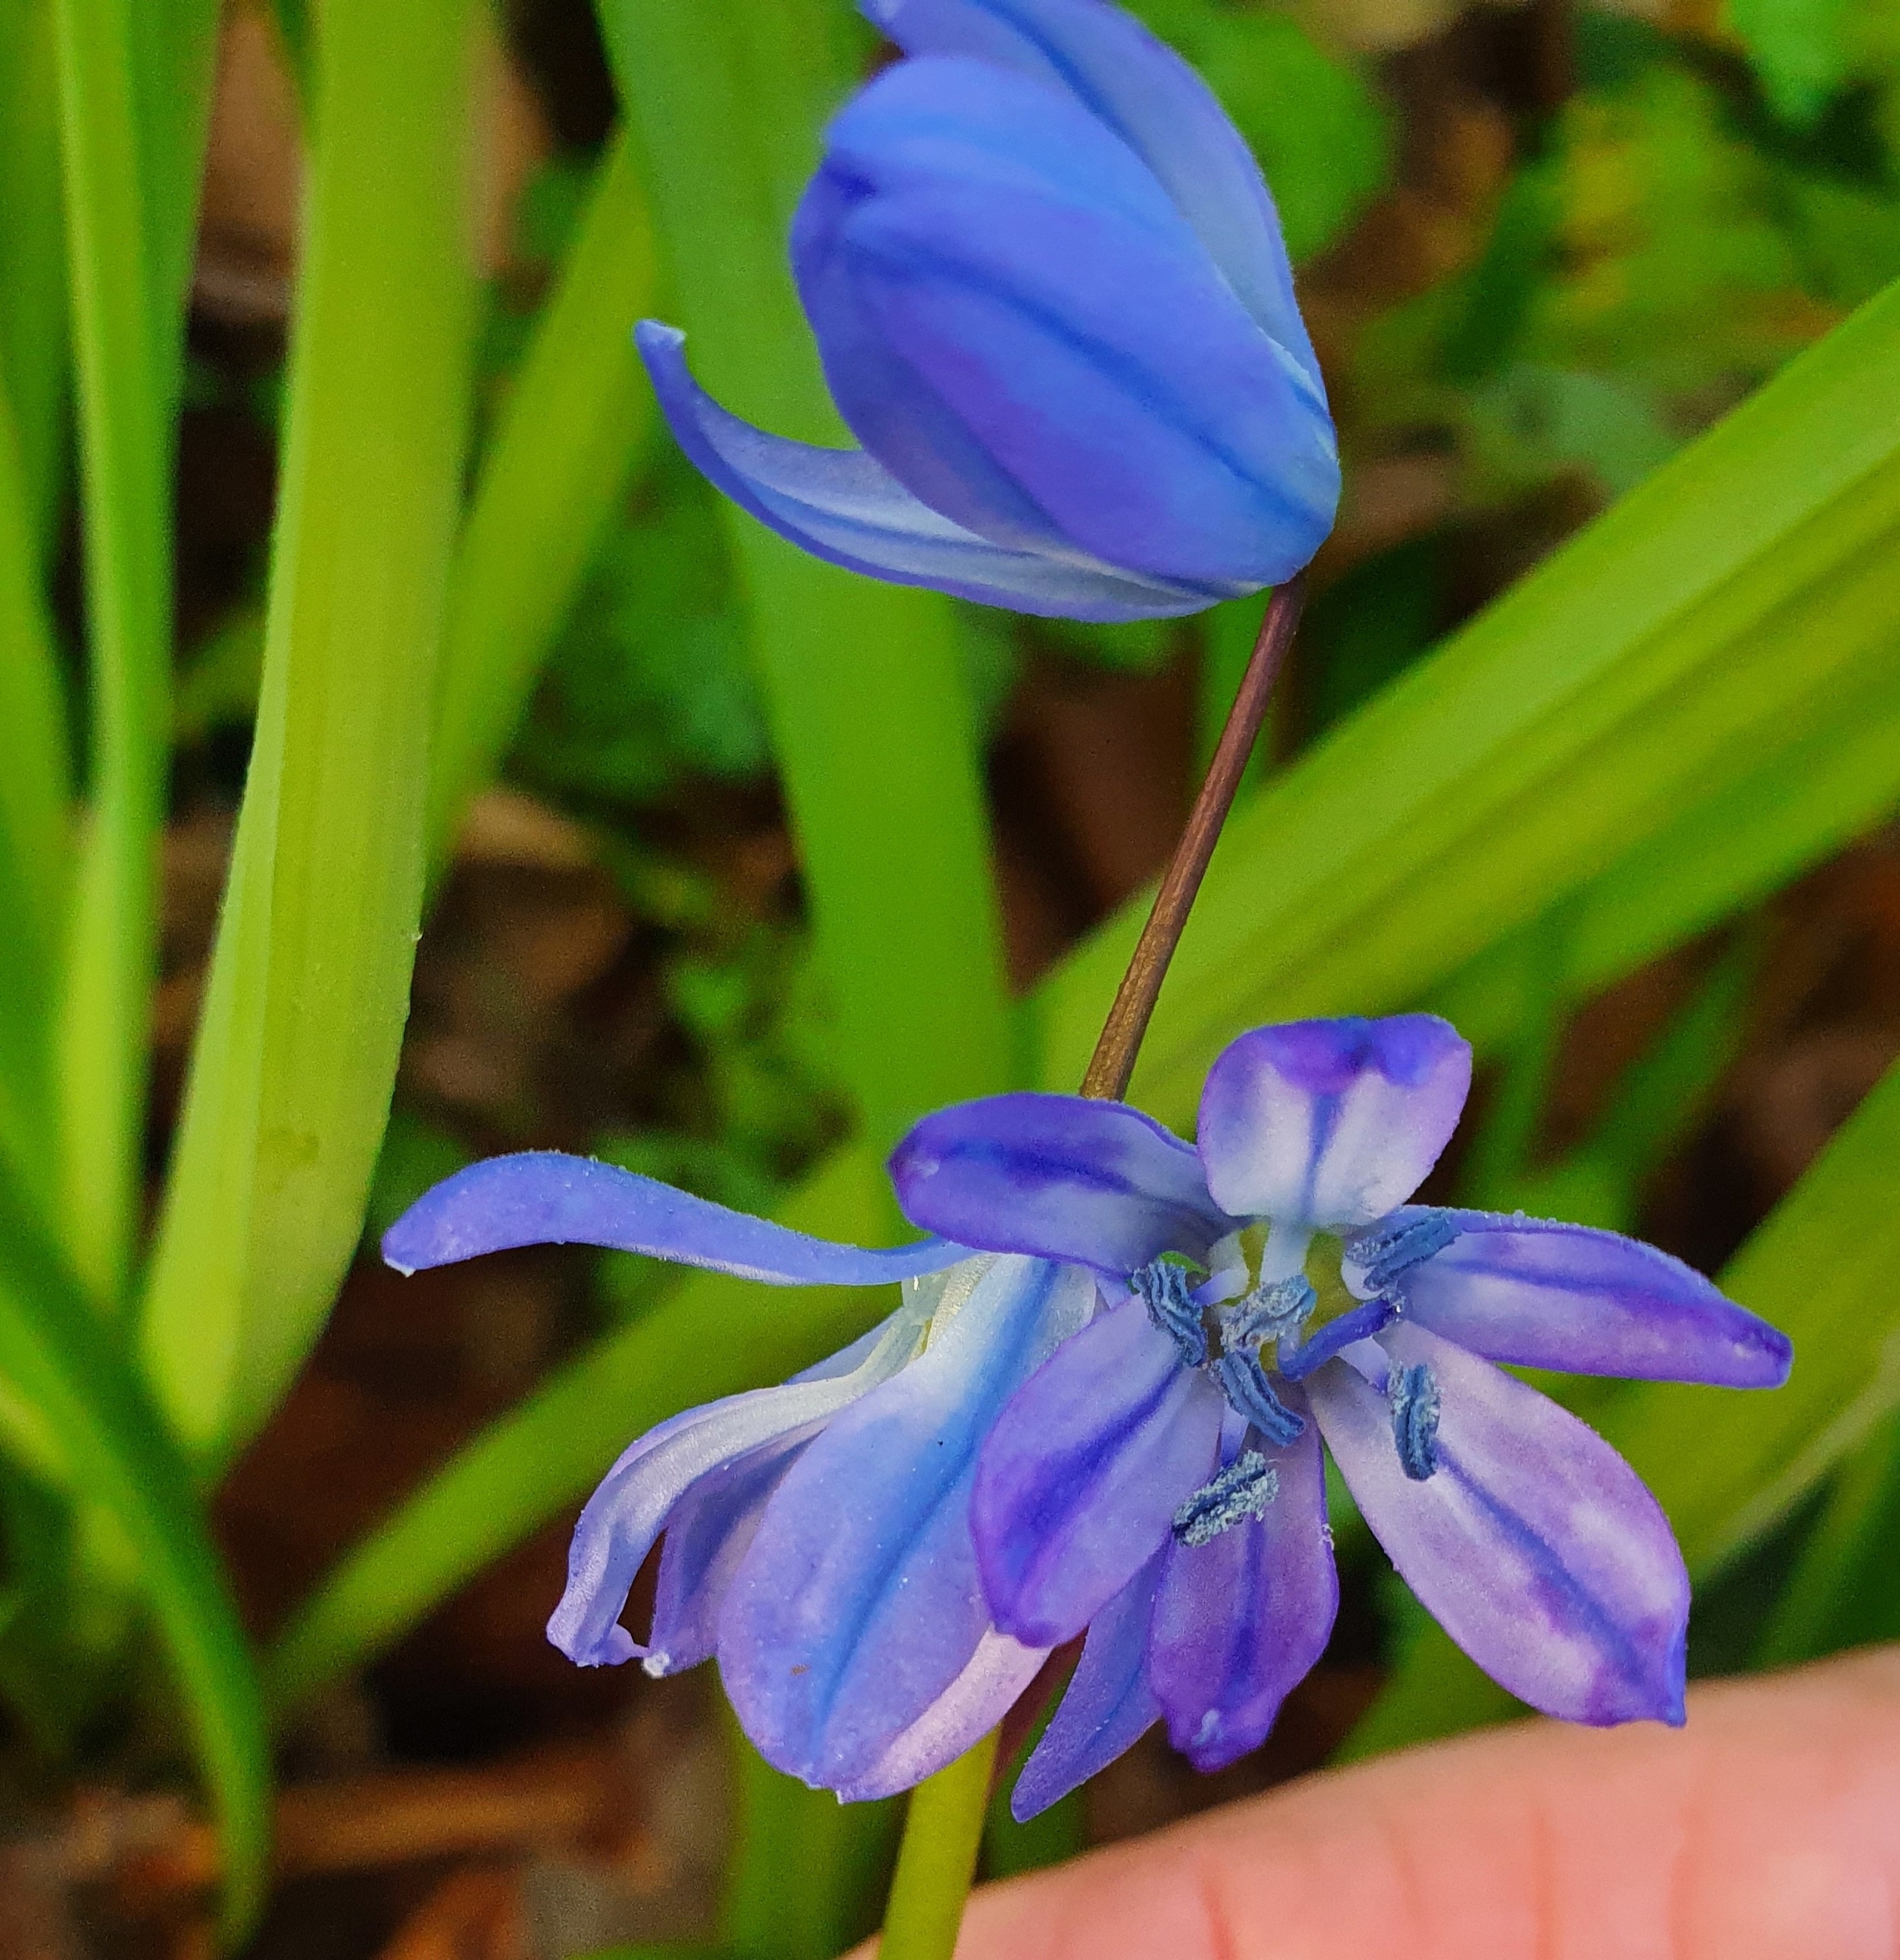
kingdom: Plantae
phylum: Tracheophyta
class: Liliopsida
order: Asparagales
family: Asparagaceae
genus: Scilla
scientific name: Scilla siberica
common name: Siberian squill
